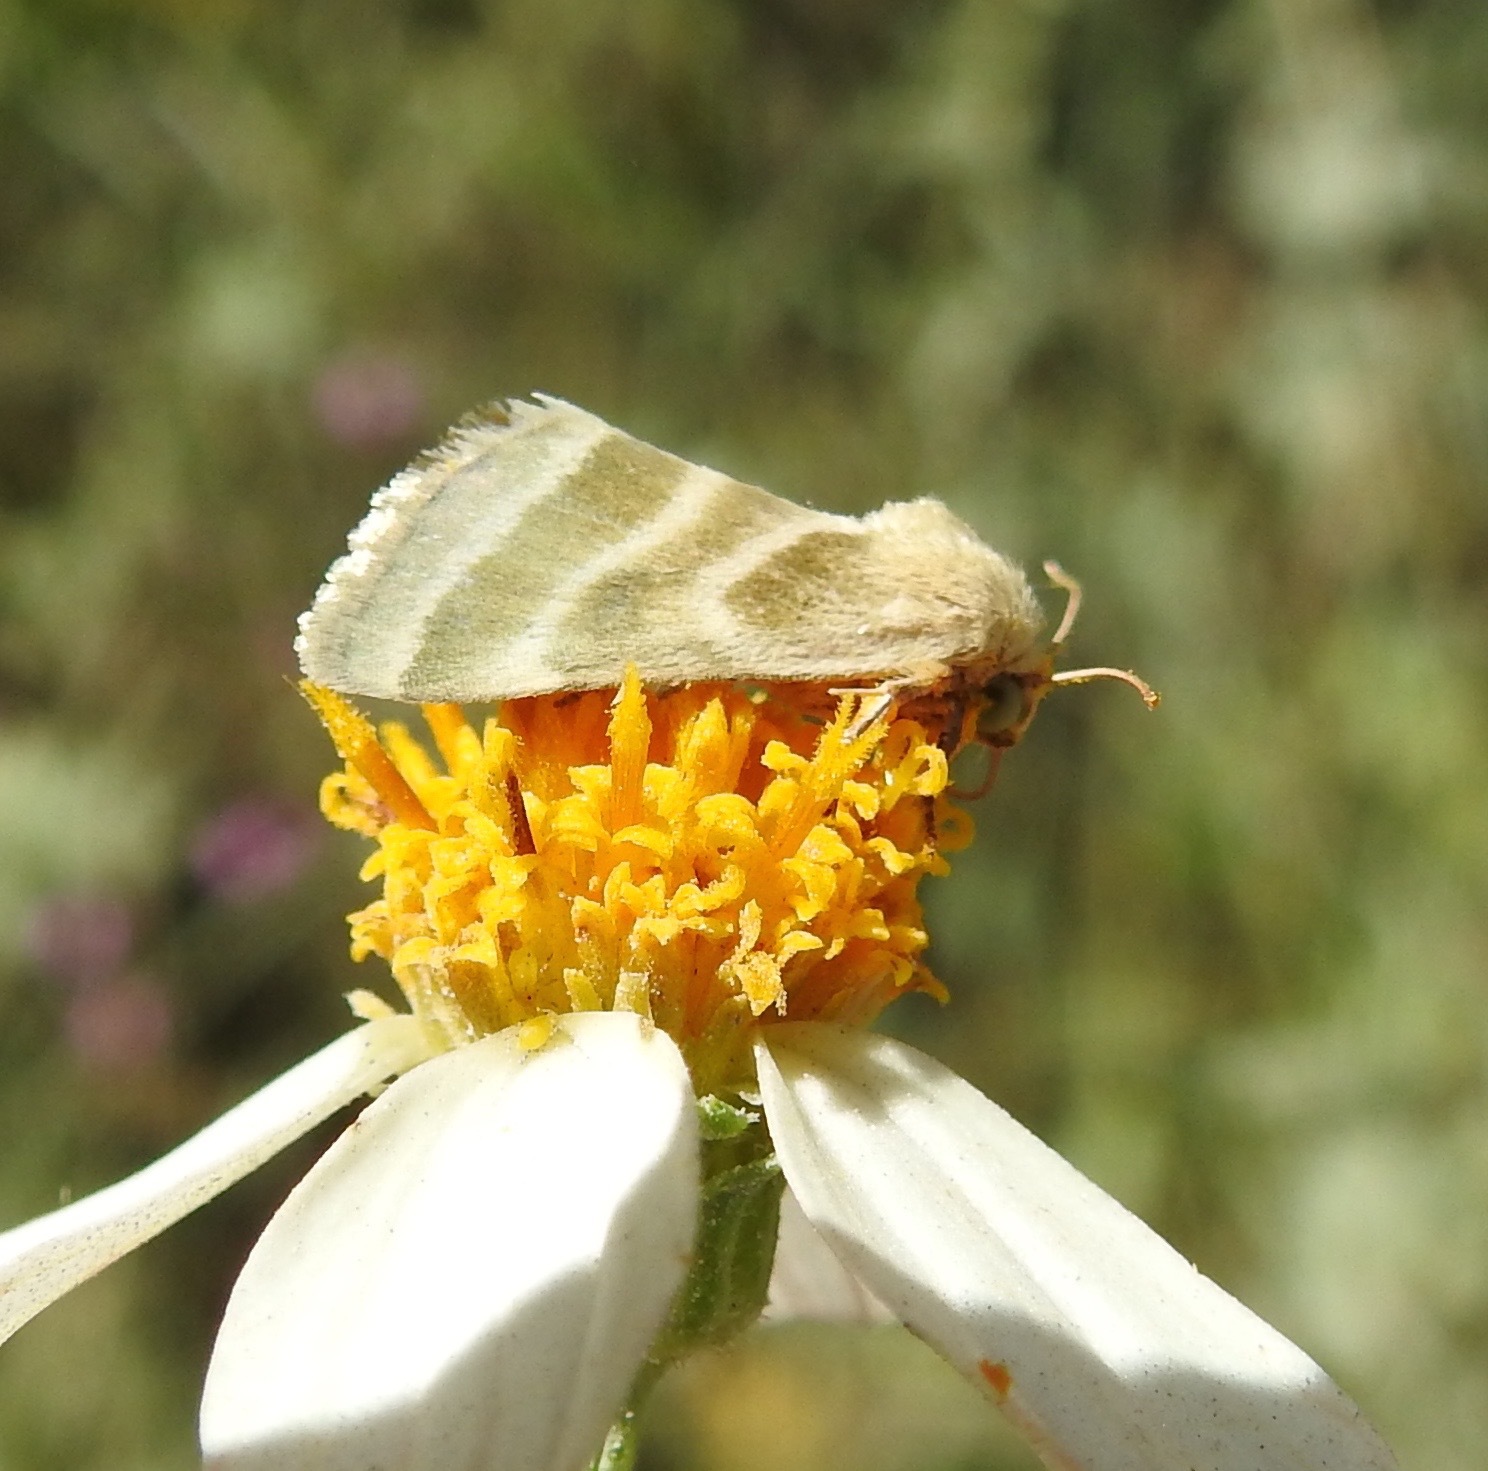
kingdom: Animalia
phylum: Arthropoda
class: Insecta
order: Lepidoptera
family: Noctuidae
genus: Schinia
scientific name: Schinia trifascia
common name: Three-lined flower moth
